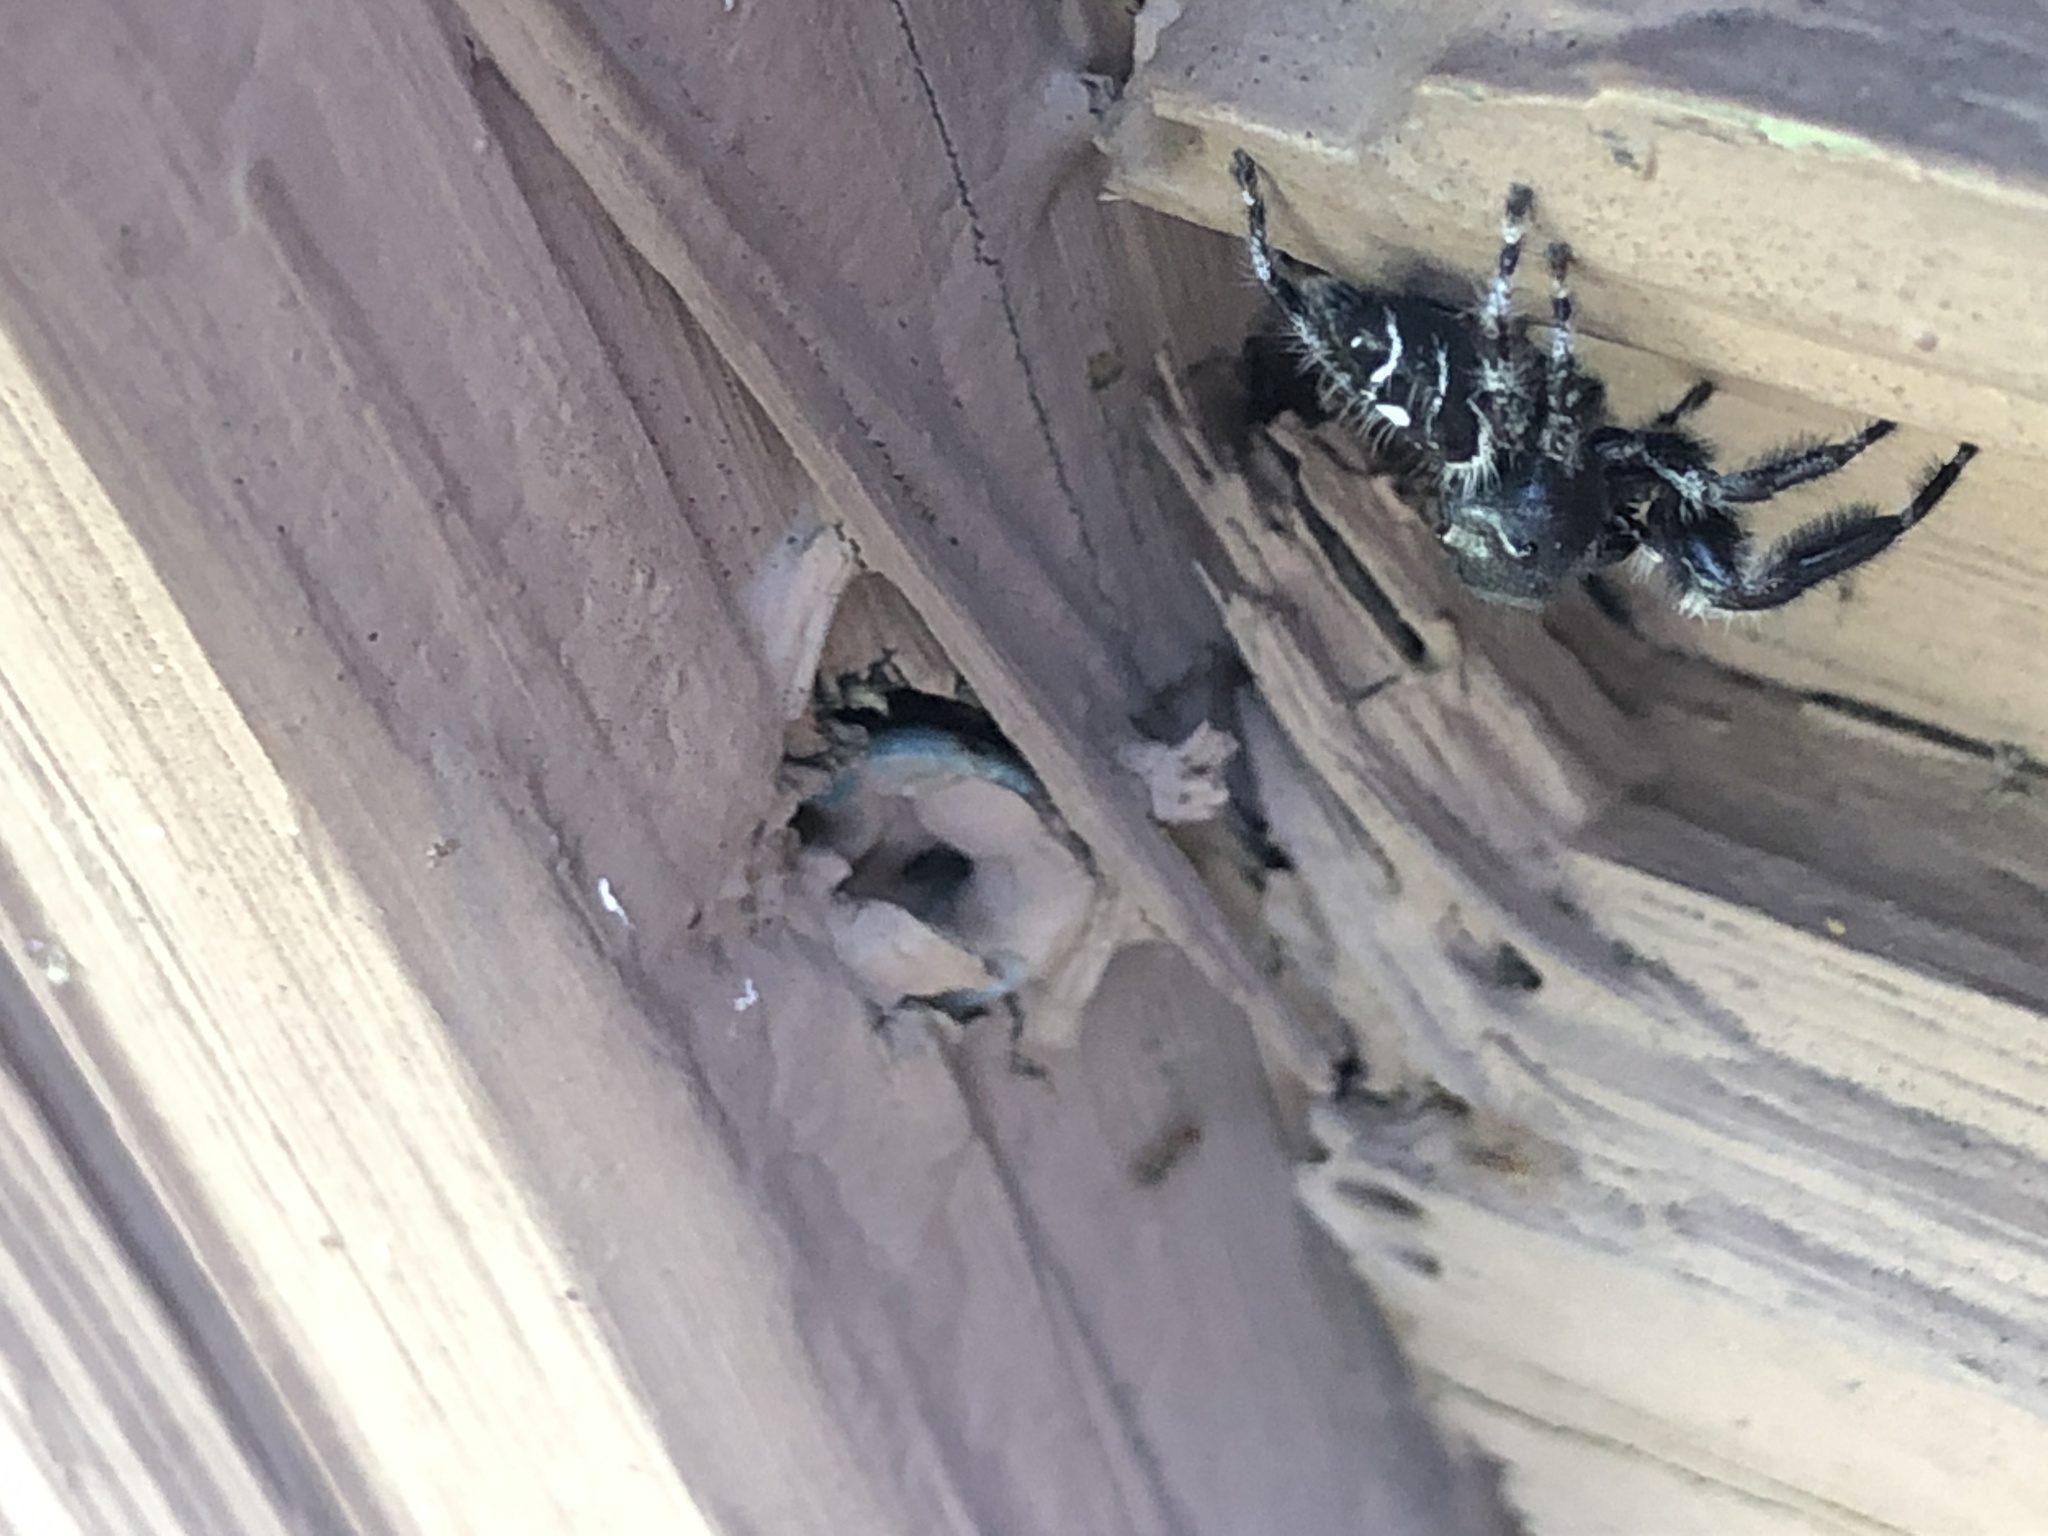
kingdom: Animalia
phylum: Arthropoda
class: Arachnida
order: Araneae
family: Salticidae
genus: Phidippus
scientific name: Phidippus audax
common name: Bold jumper
